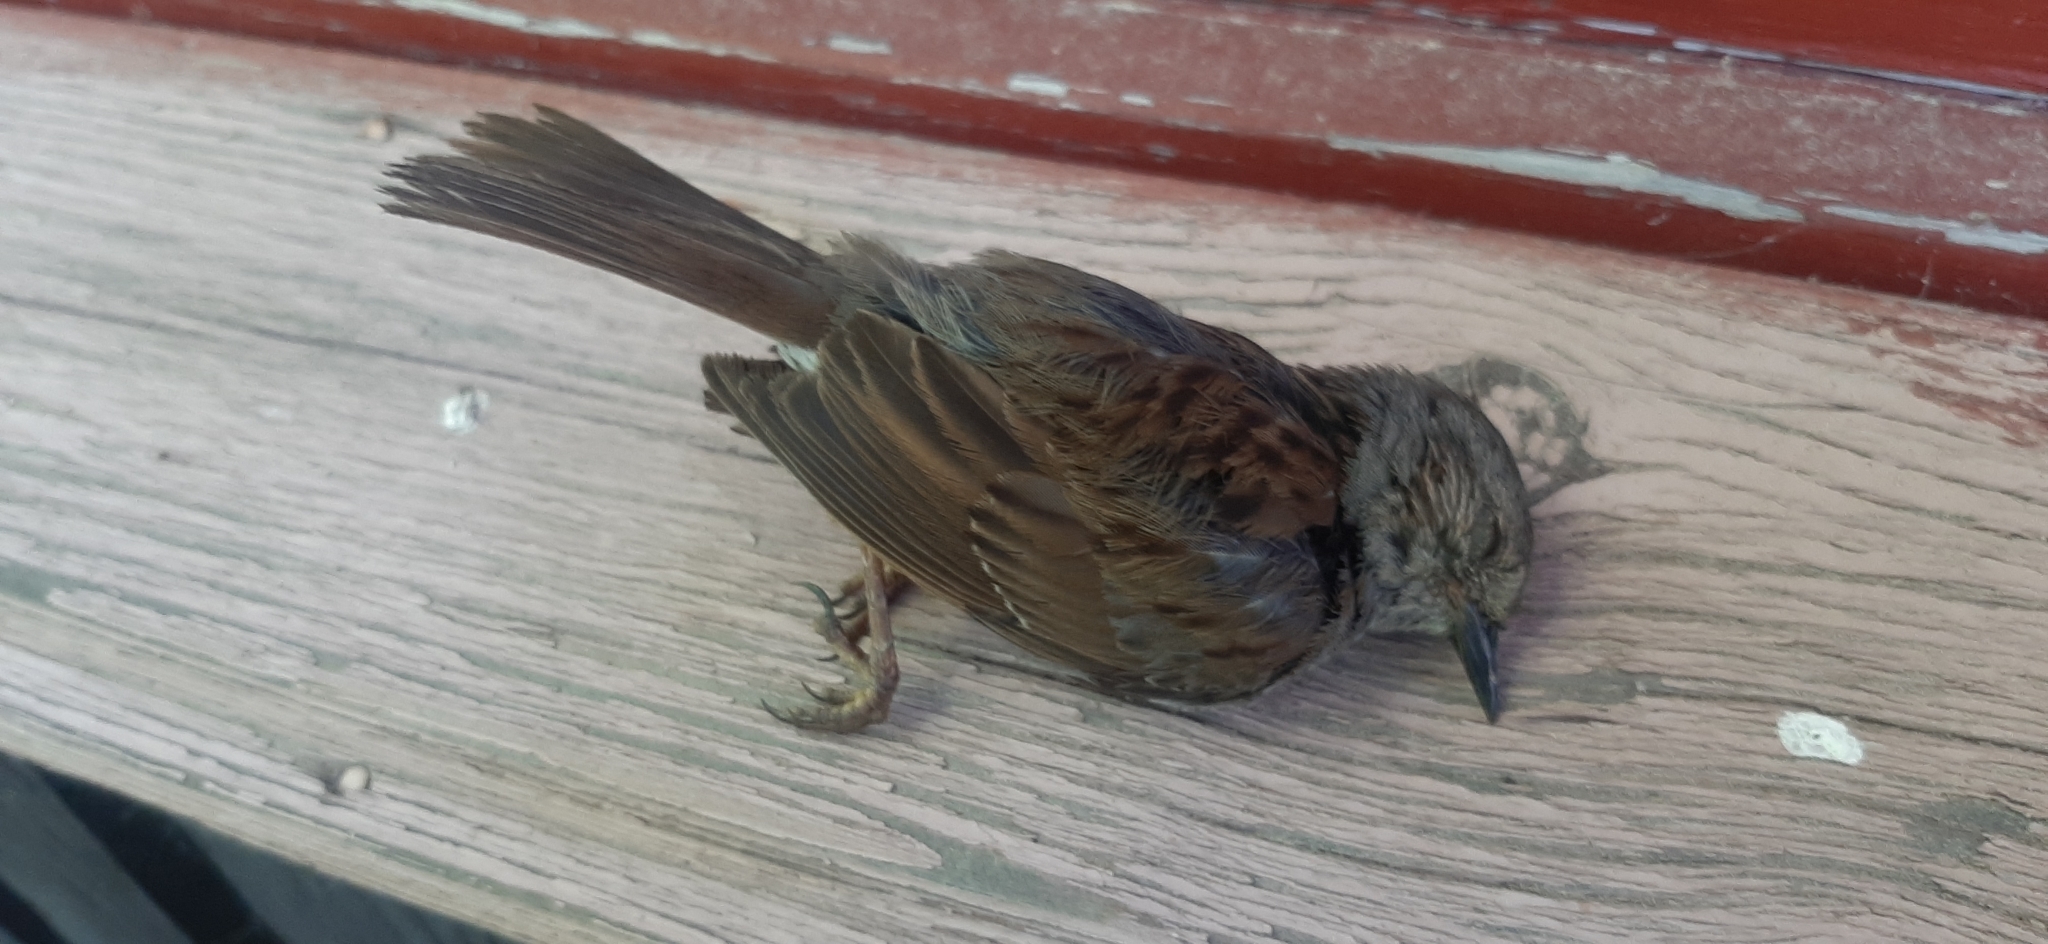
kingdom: Animalia
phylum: Chordata
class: Aves
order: Passeriformes
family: Prunellidae
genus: Prunella
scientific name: Prunella modularis
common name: Dunnock
